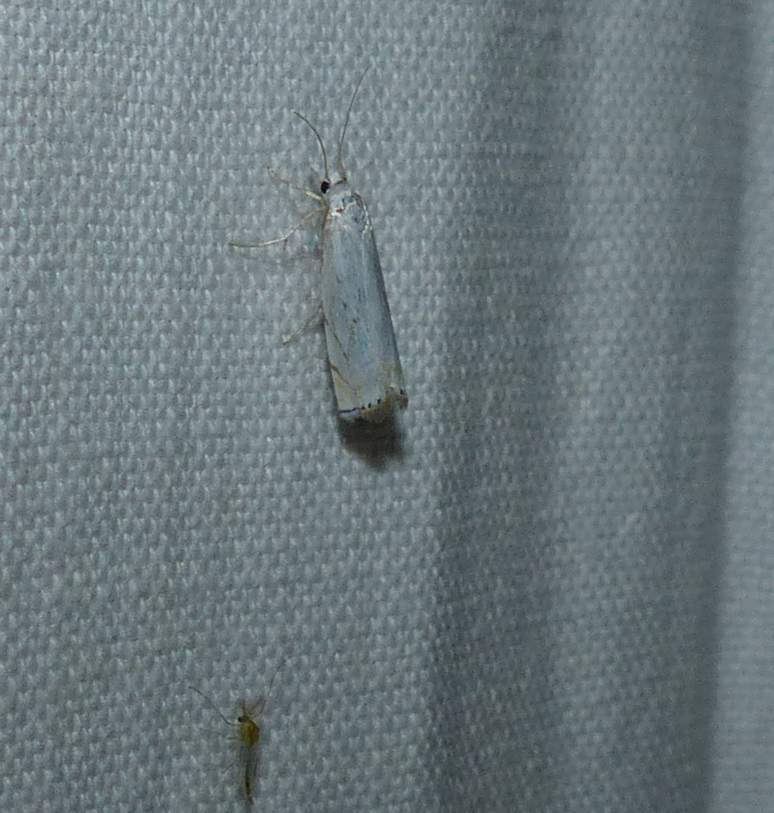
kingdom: Animalia
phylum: Arthropoda
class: Insecta
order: Lepidoptera
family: Crambidae
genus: Crambus
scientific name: Crambus albellus
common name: Small white grass-veneer
